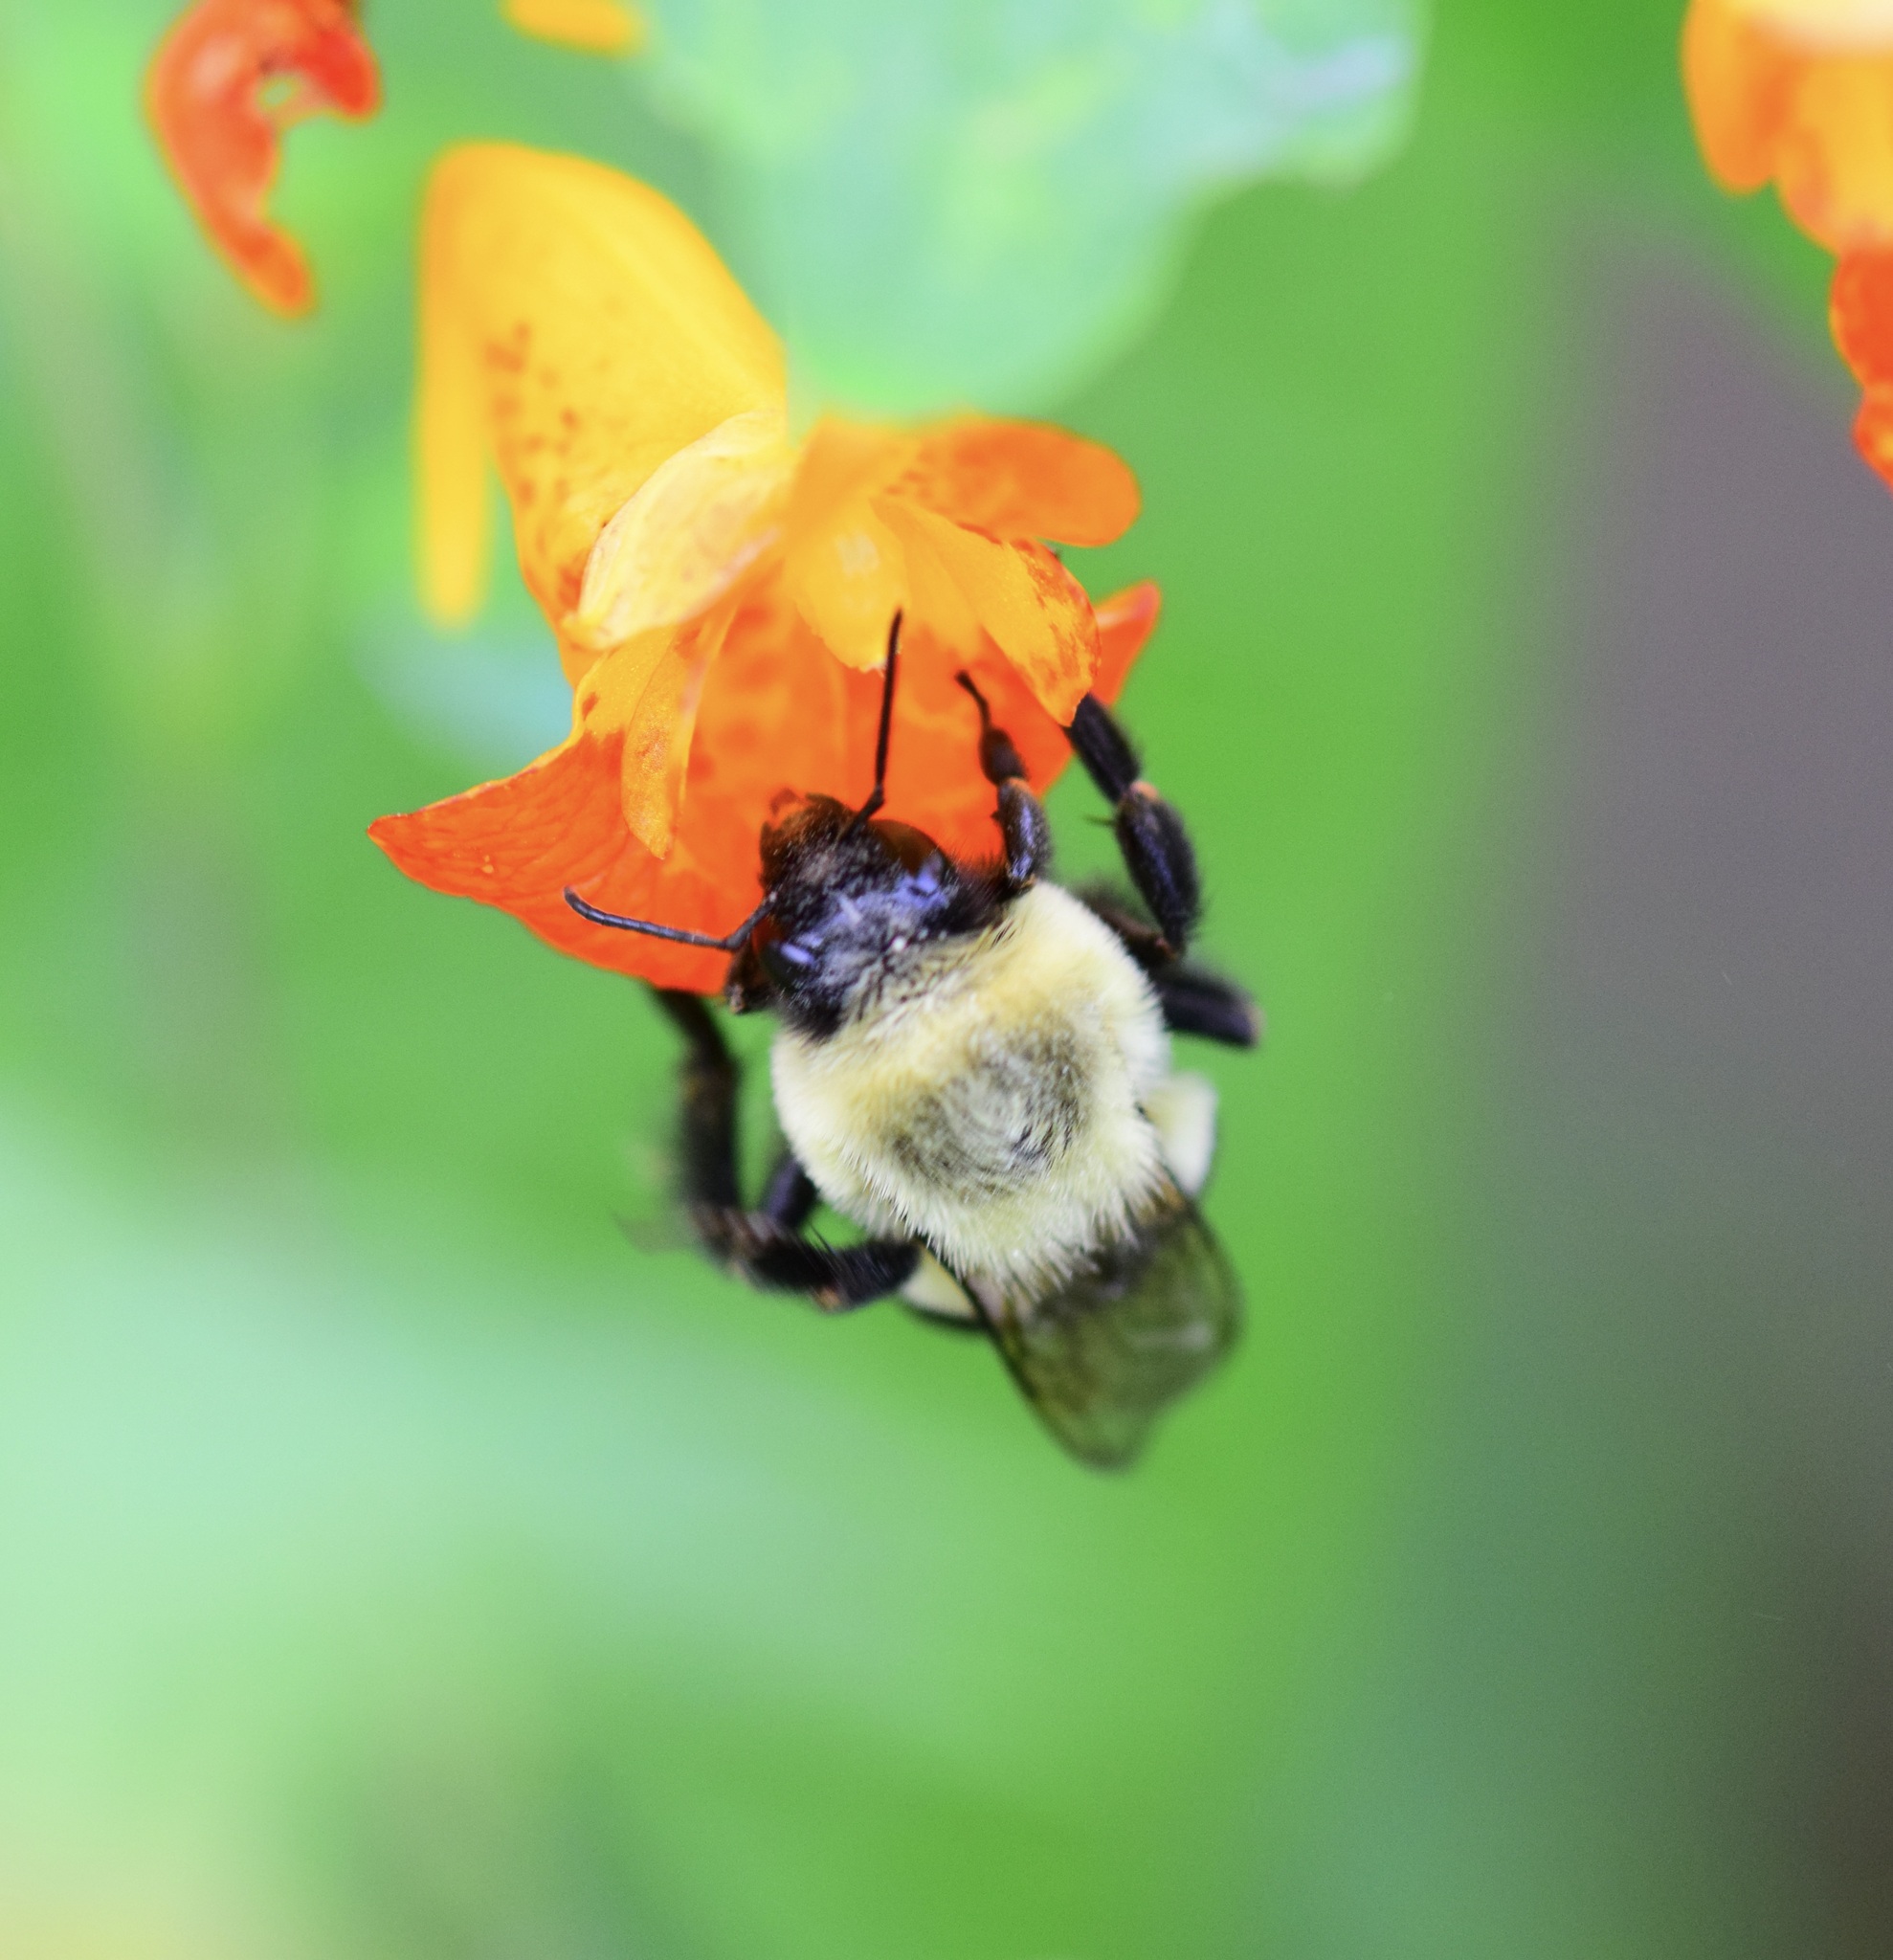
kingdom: Animalia
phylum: Arthropoda
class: Insecta
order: Hymenoptera
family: Apidae
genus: Bombus
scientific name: Bombus impatiens
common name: Common eastern bumble bee
